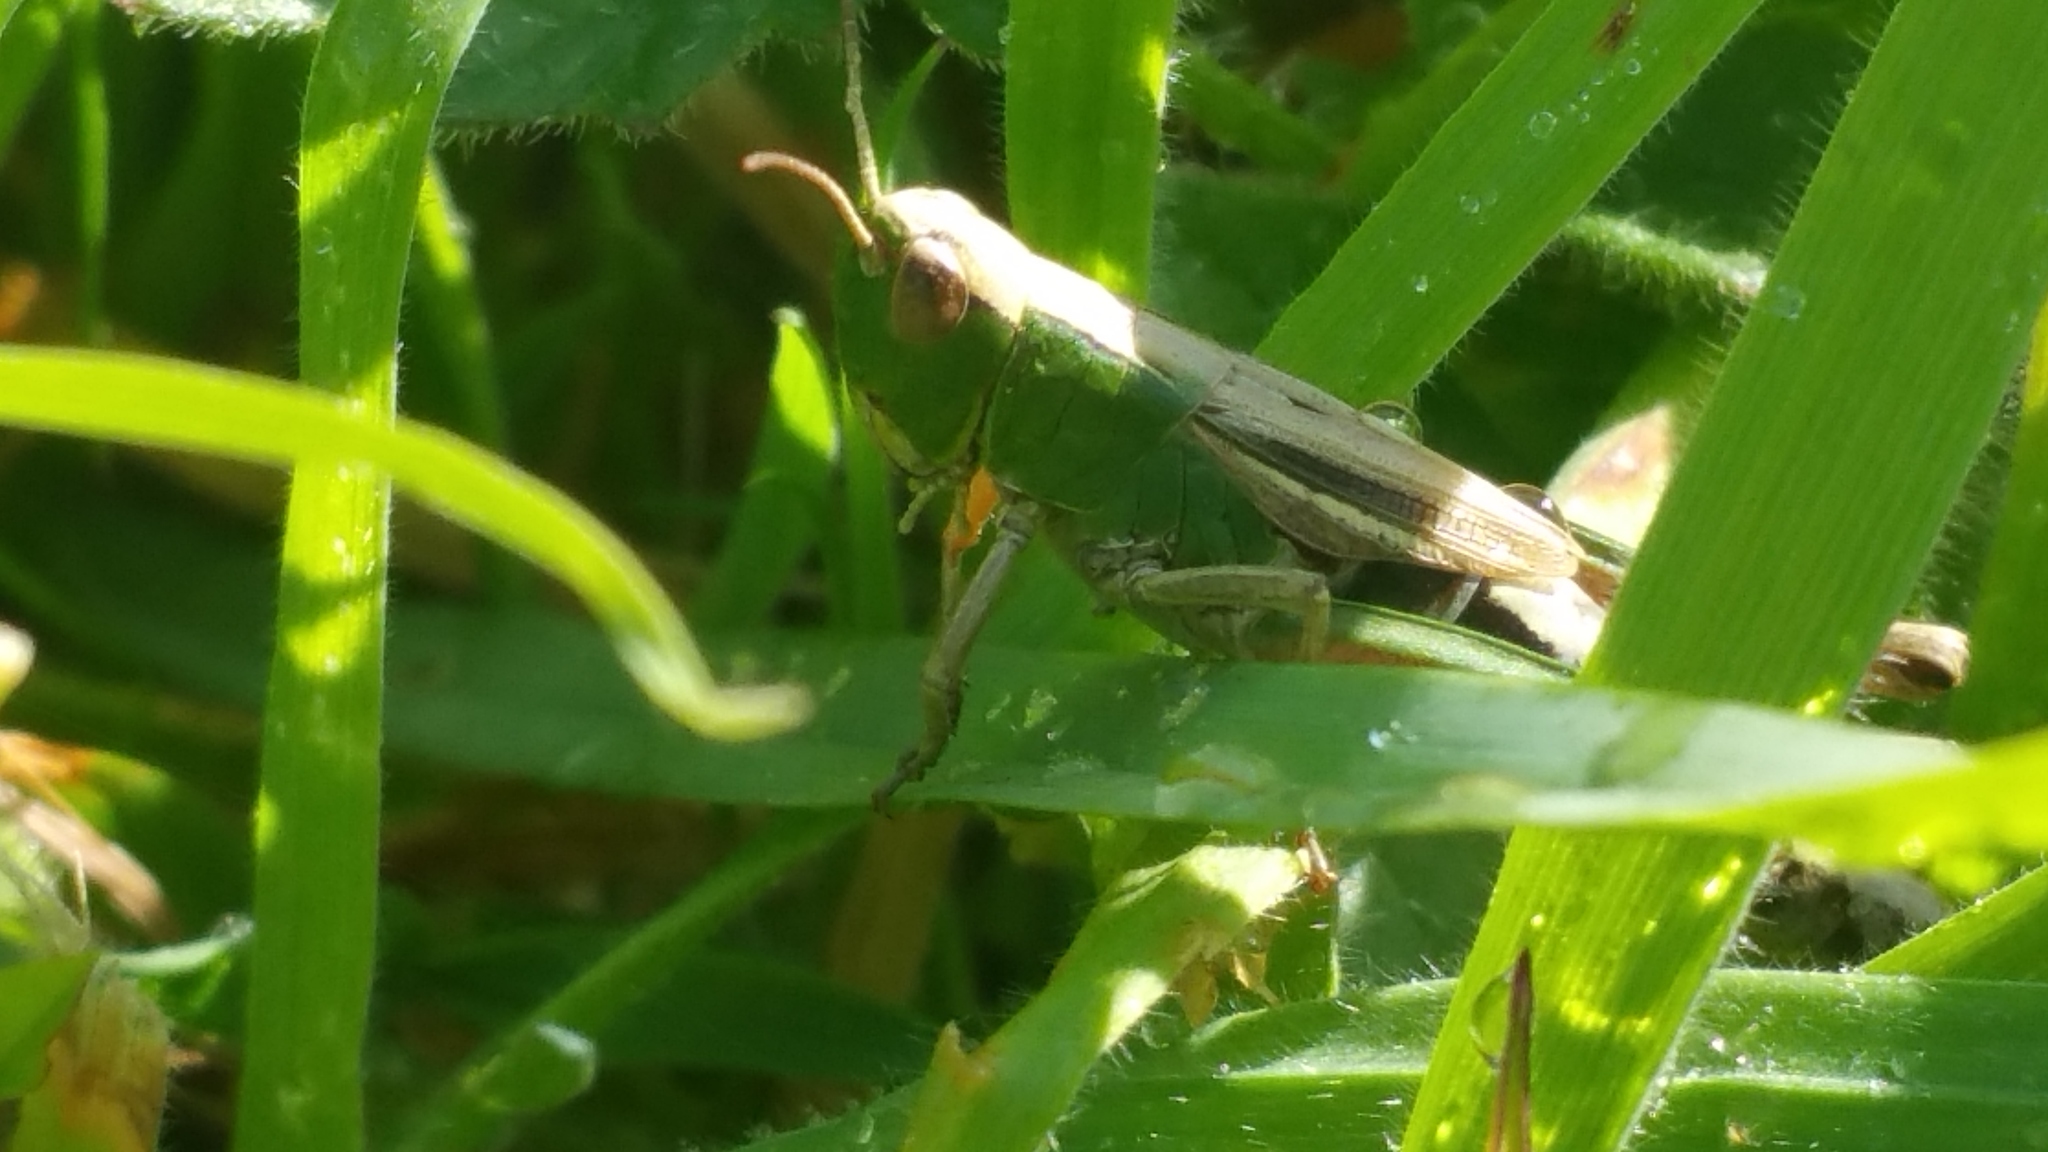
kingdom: Animalia
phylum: Arthropoda
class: Insecta
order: Orthoptera
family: Acrididae
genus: Pseudochorthippus
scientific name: Pseudochorthippus parallelus
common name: Meadow grasshopper
